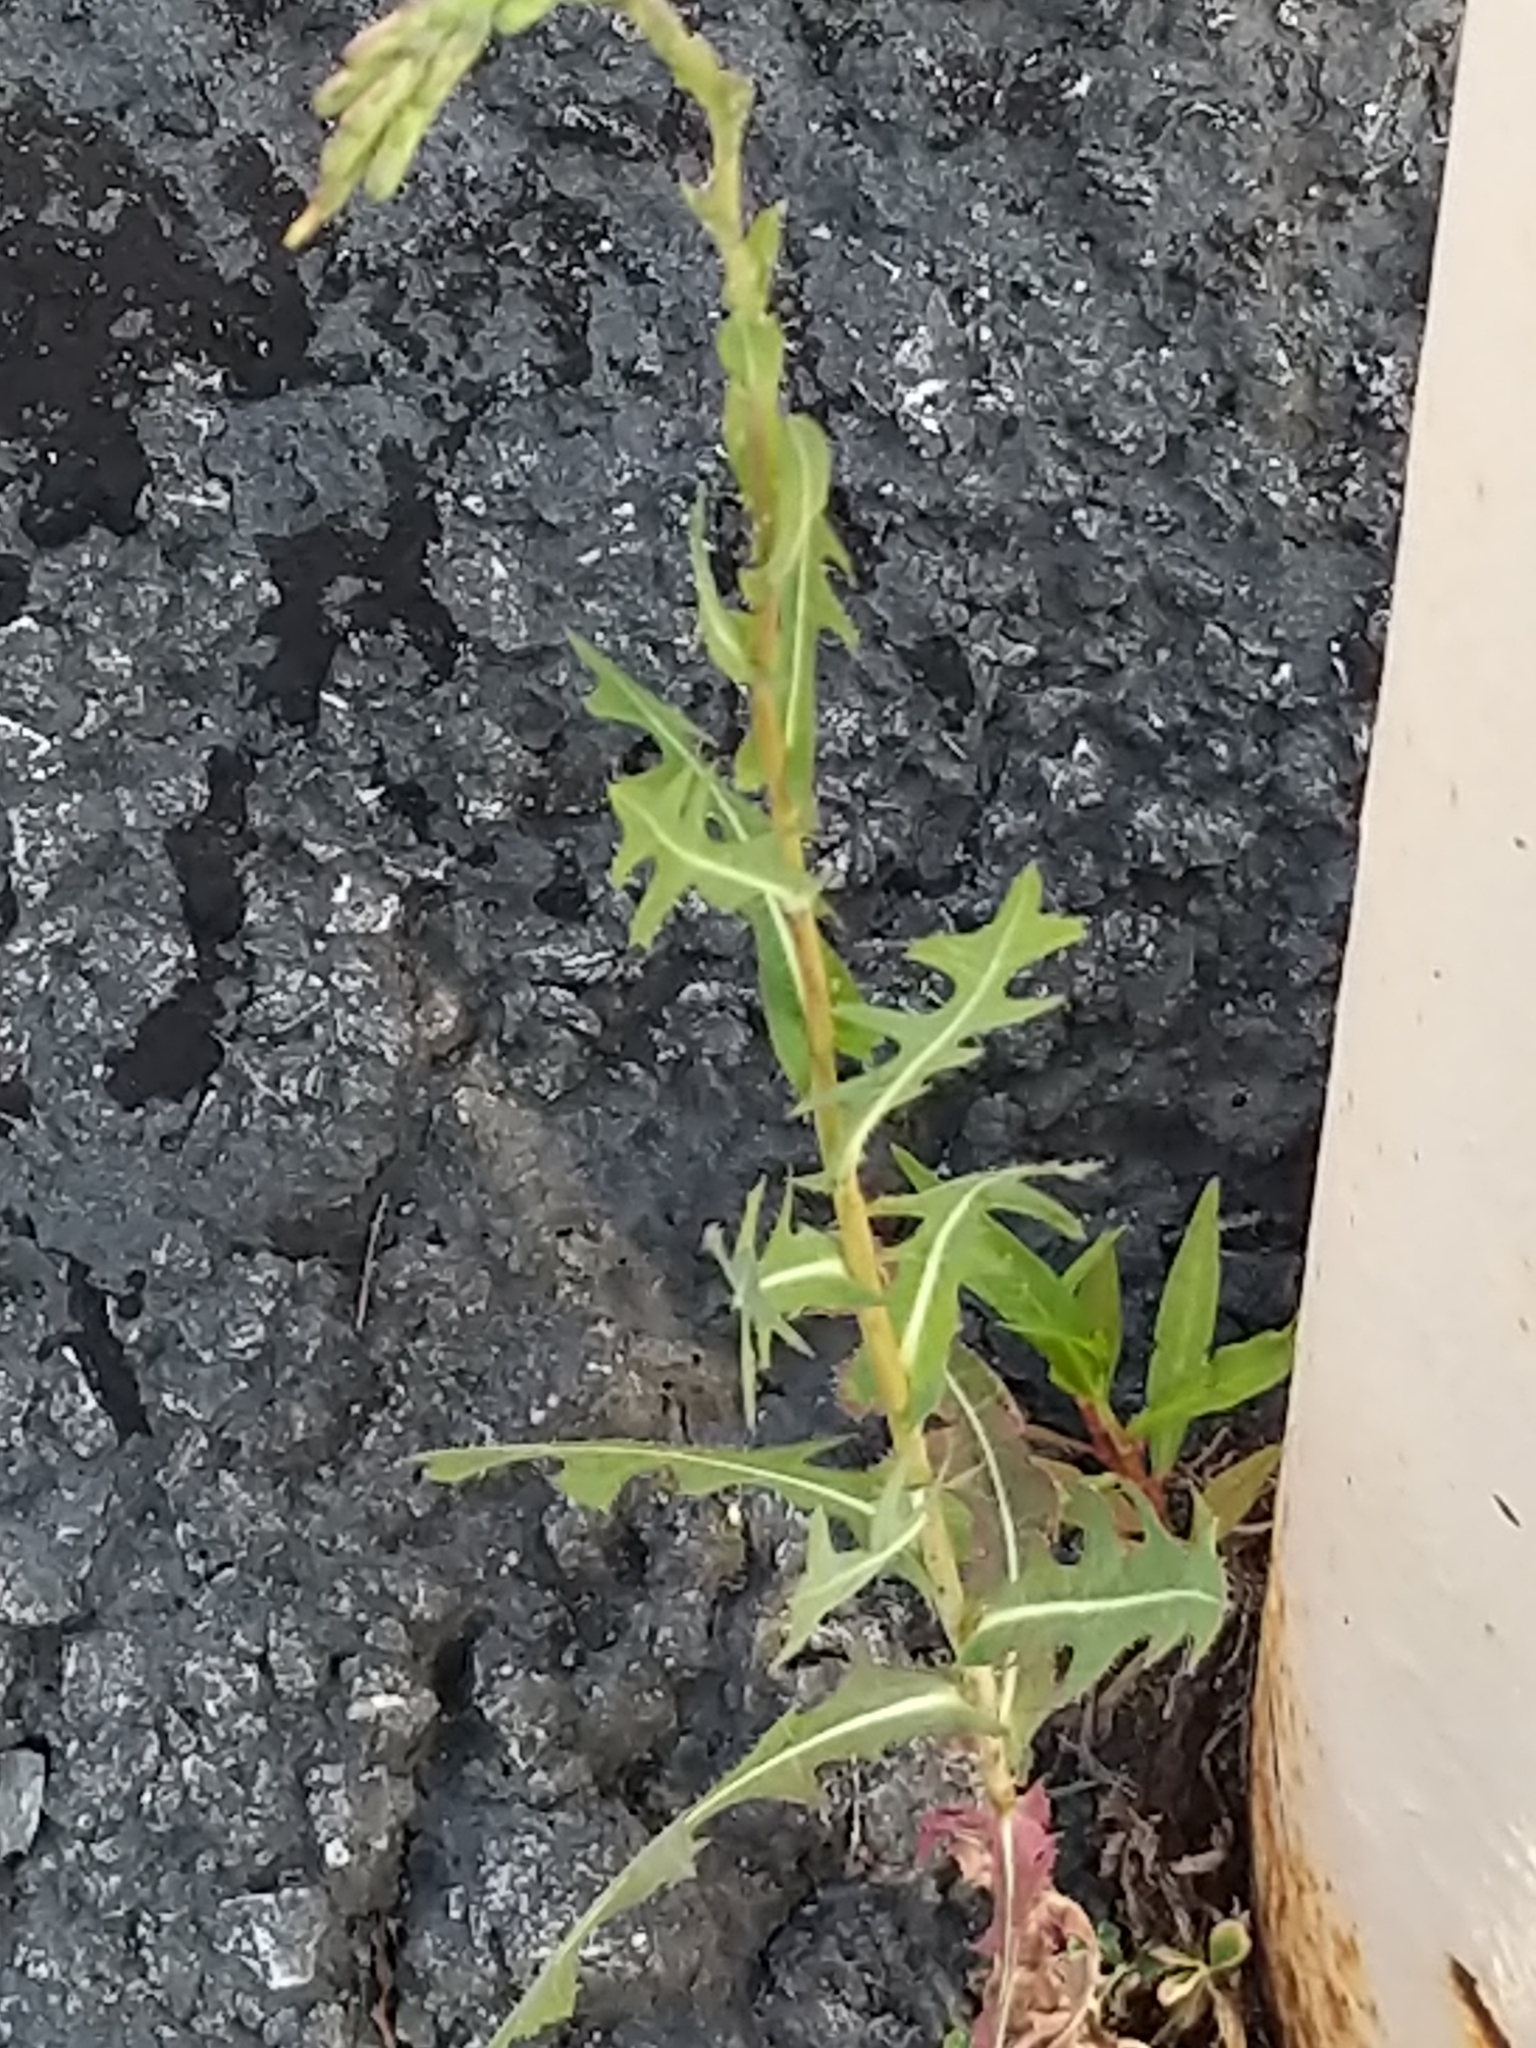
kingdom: Plantae
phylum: Tracheophyta
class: Magnoliopsida
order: Asterales
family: Asteraceae
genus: Lactuca
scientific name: Lactuca serriola
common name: Prickly lettuce
